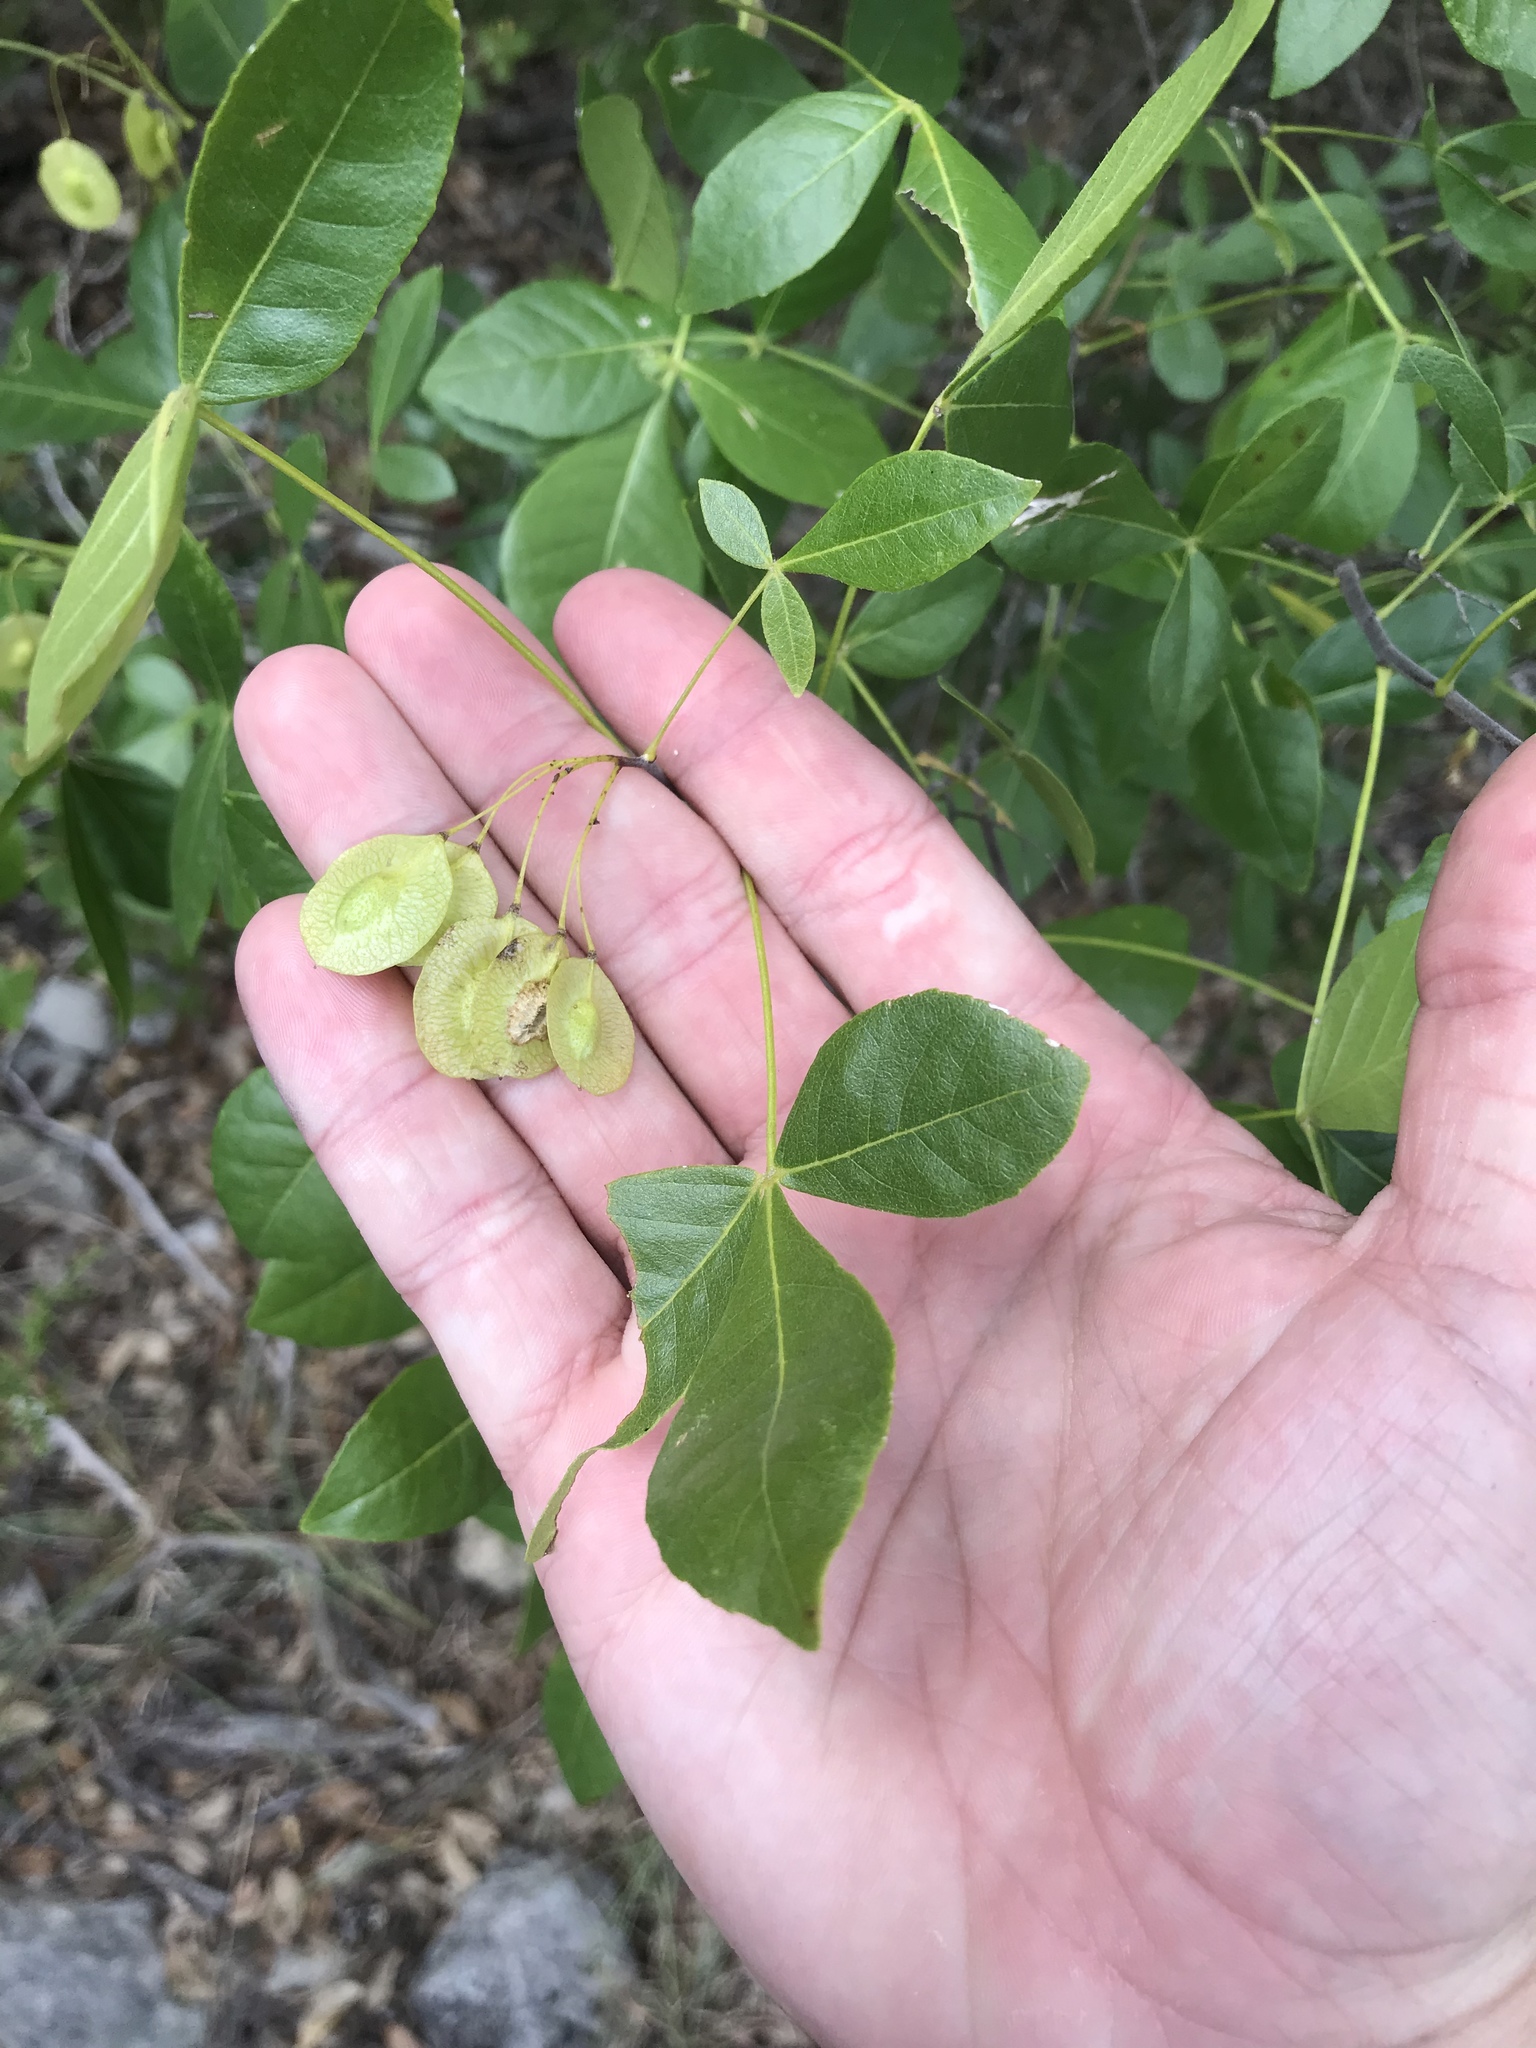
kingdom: Plantae
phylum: Tracheophyta
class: Magnoliopsida
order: Sapindales
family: Rutaceae
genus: Ptelea
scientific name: Ptelea trifoliata
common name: Common hop-tree
